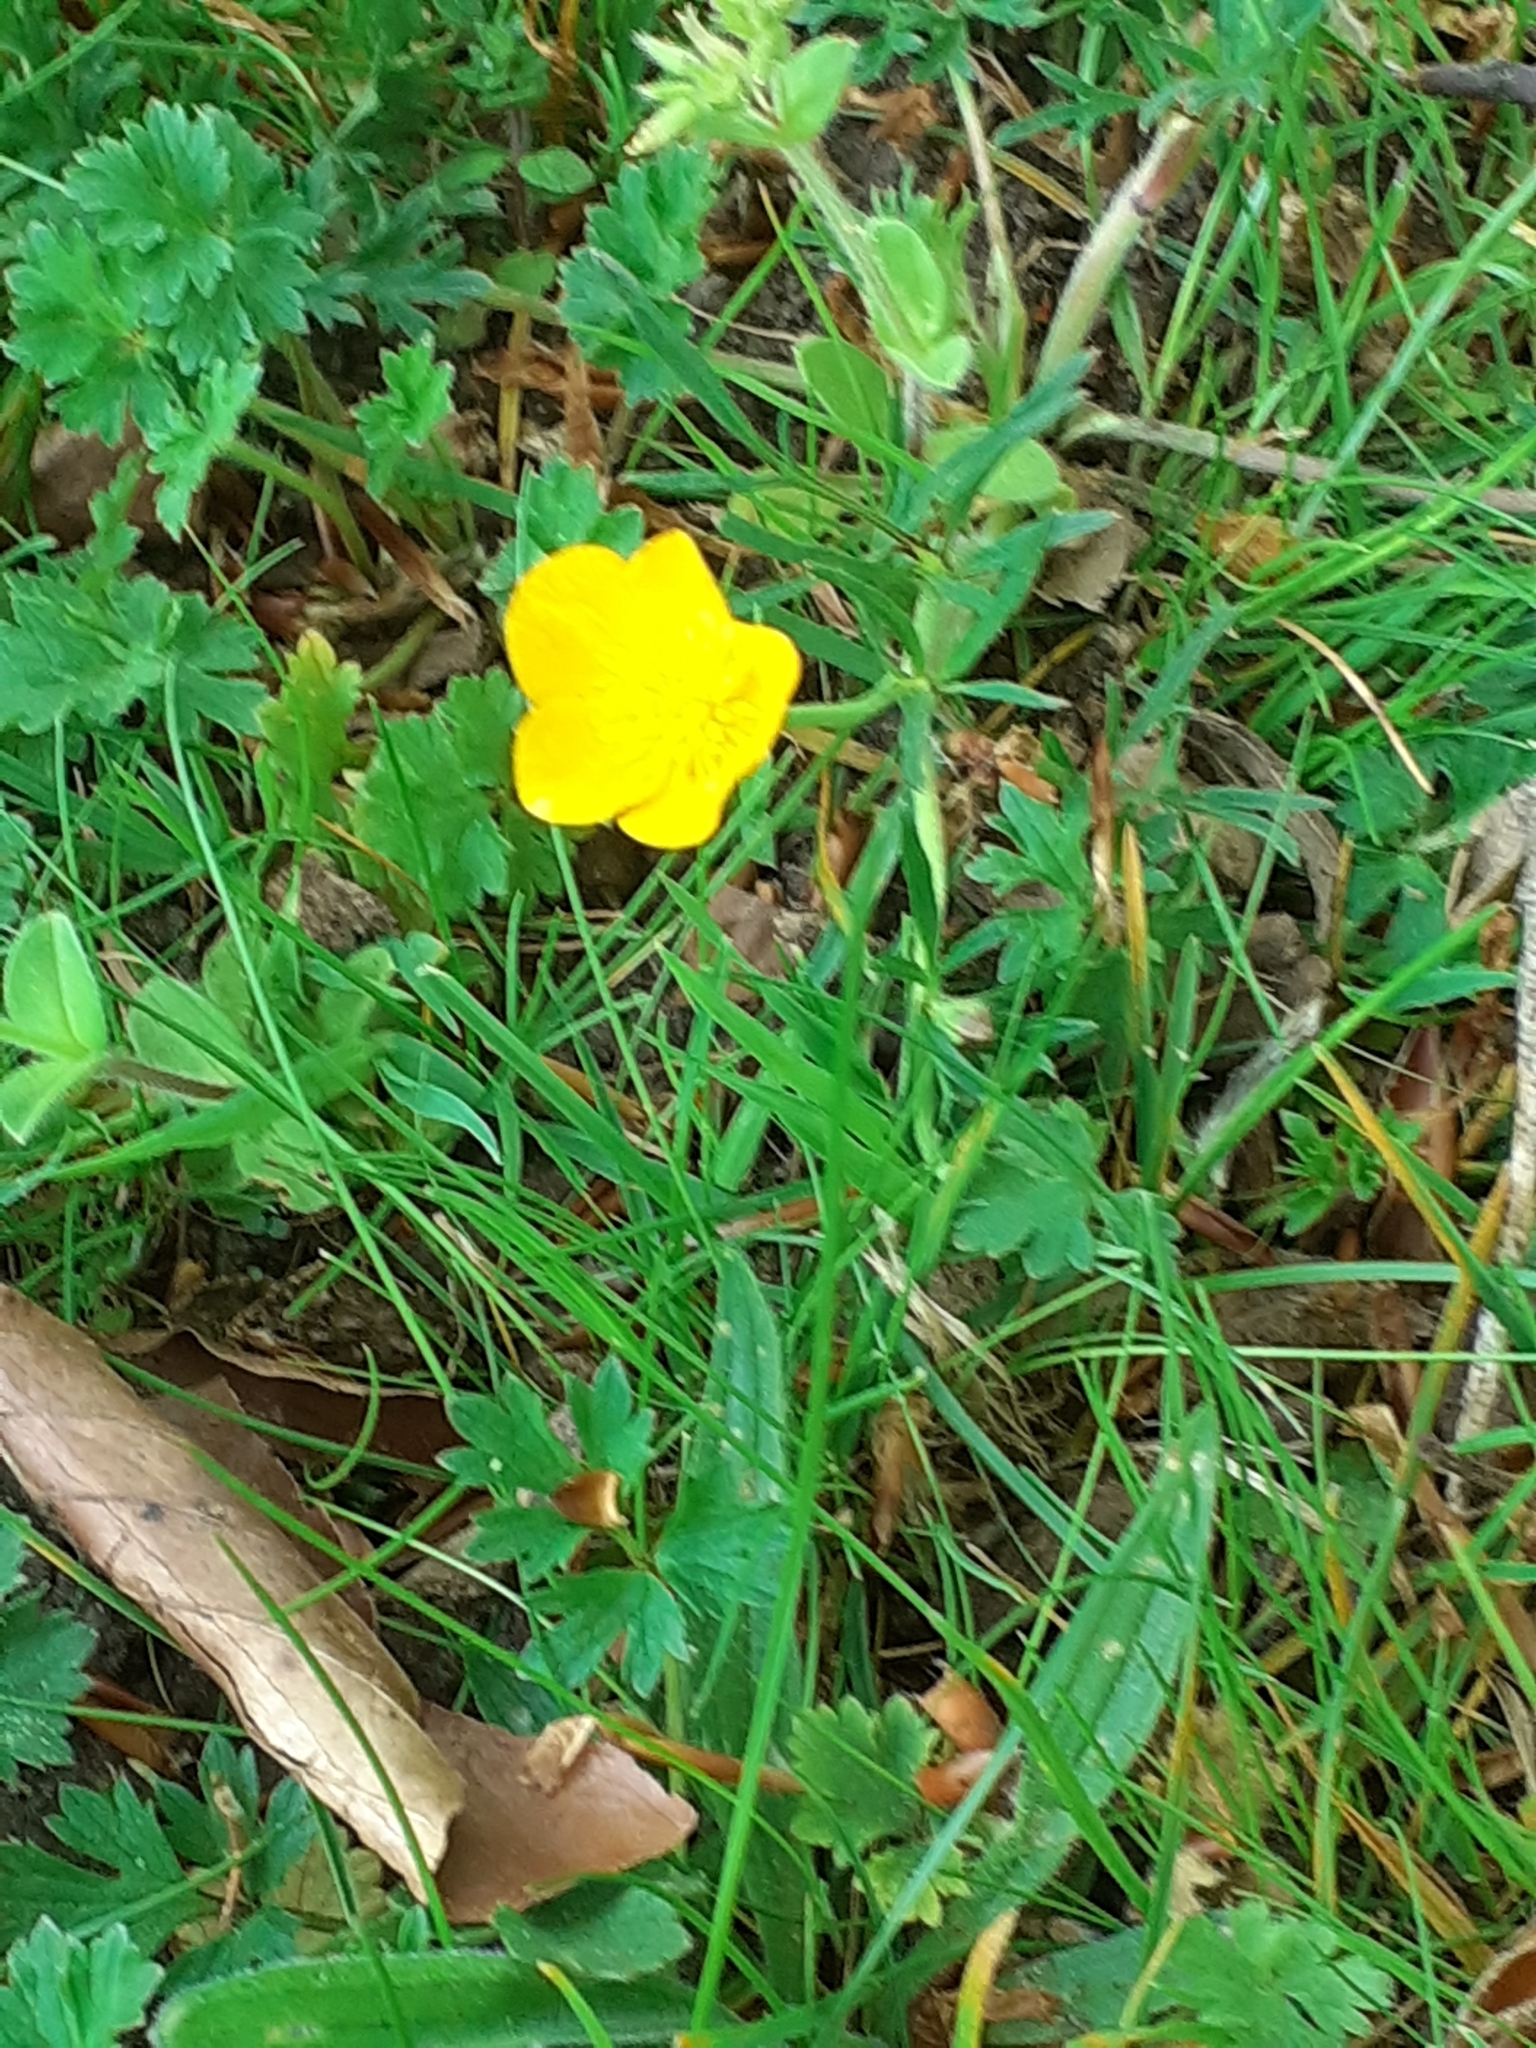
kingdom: Plantae
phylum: Tracheophyta
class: Magnoliopsida
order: Ranunculales
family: Ranunculaceae
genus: Ranunculus
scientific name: Ranunculus bulbosus
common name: Bulbous buttercup
